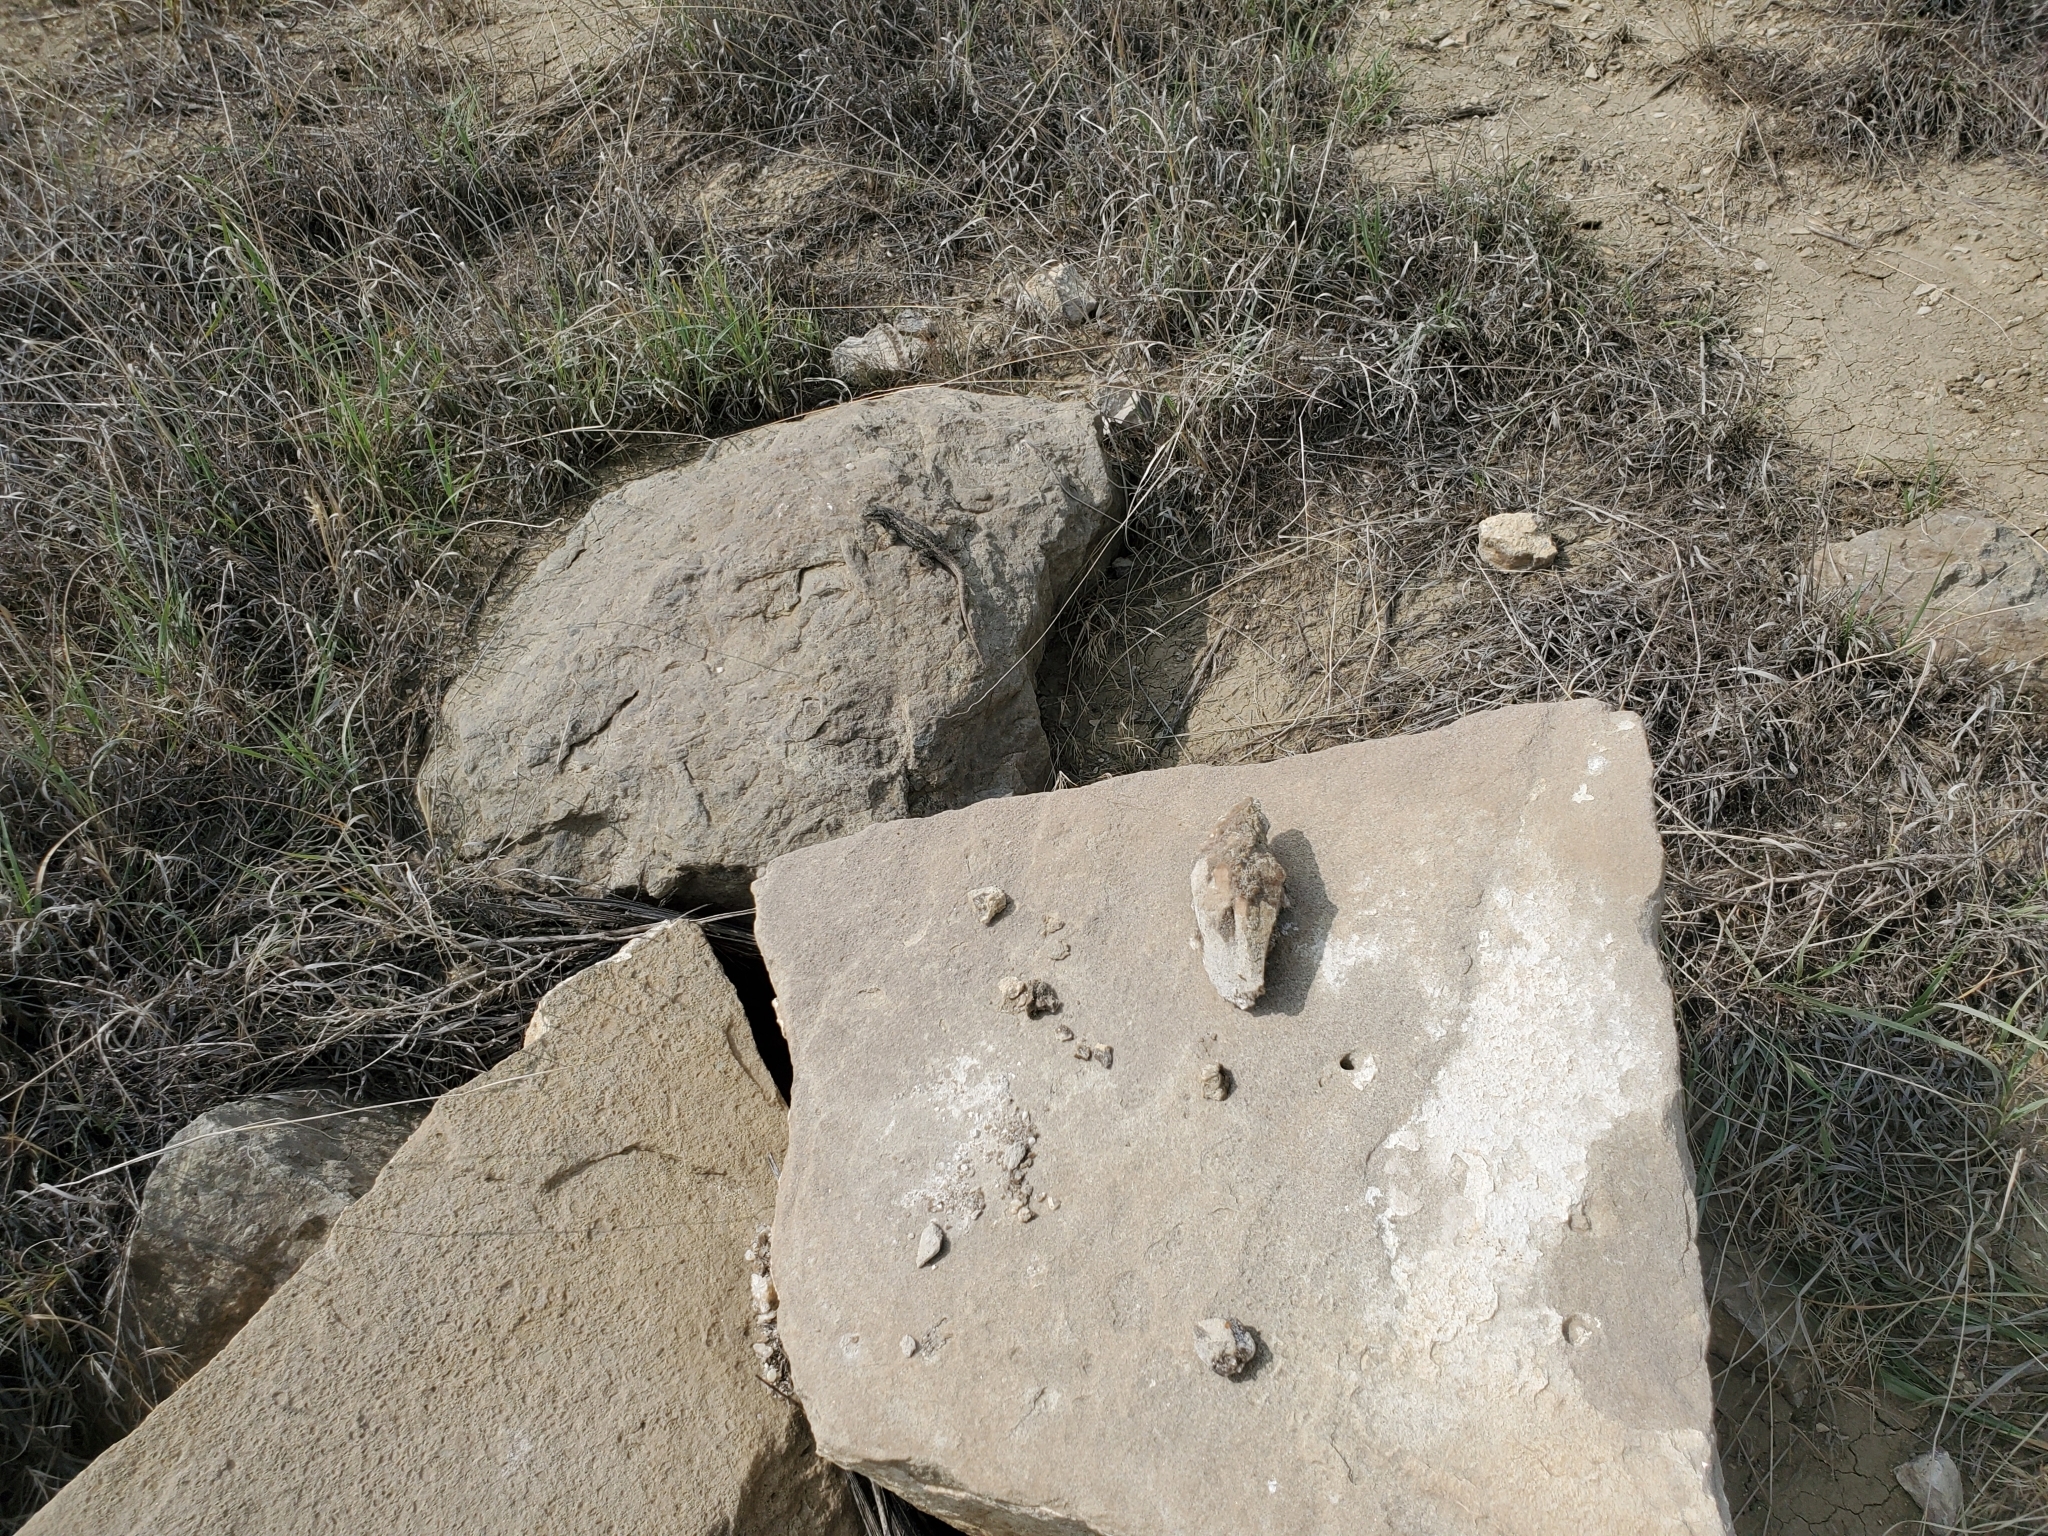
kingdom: Animalia
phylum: Chordata
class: Squamata
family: Phrynosomatidae
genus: Sceloporus
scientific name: Sceloporus consobrinus
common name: Southern prairie lizard
